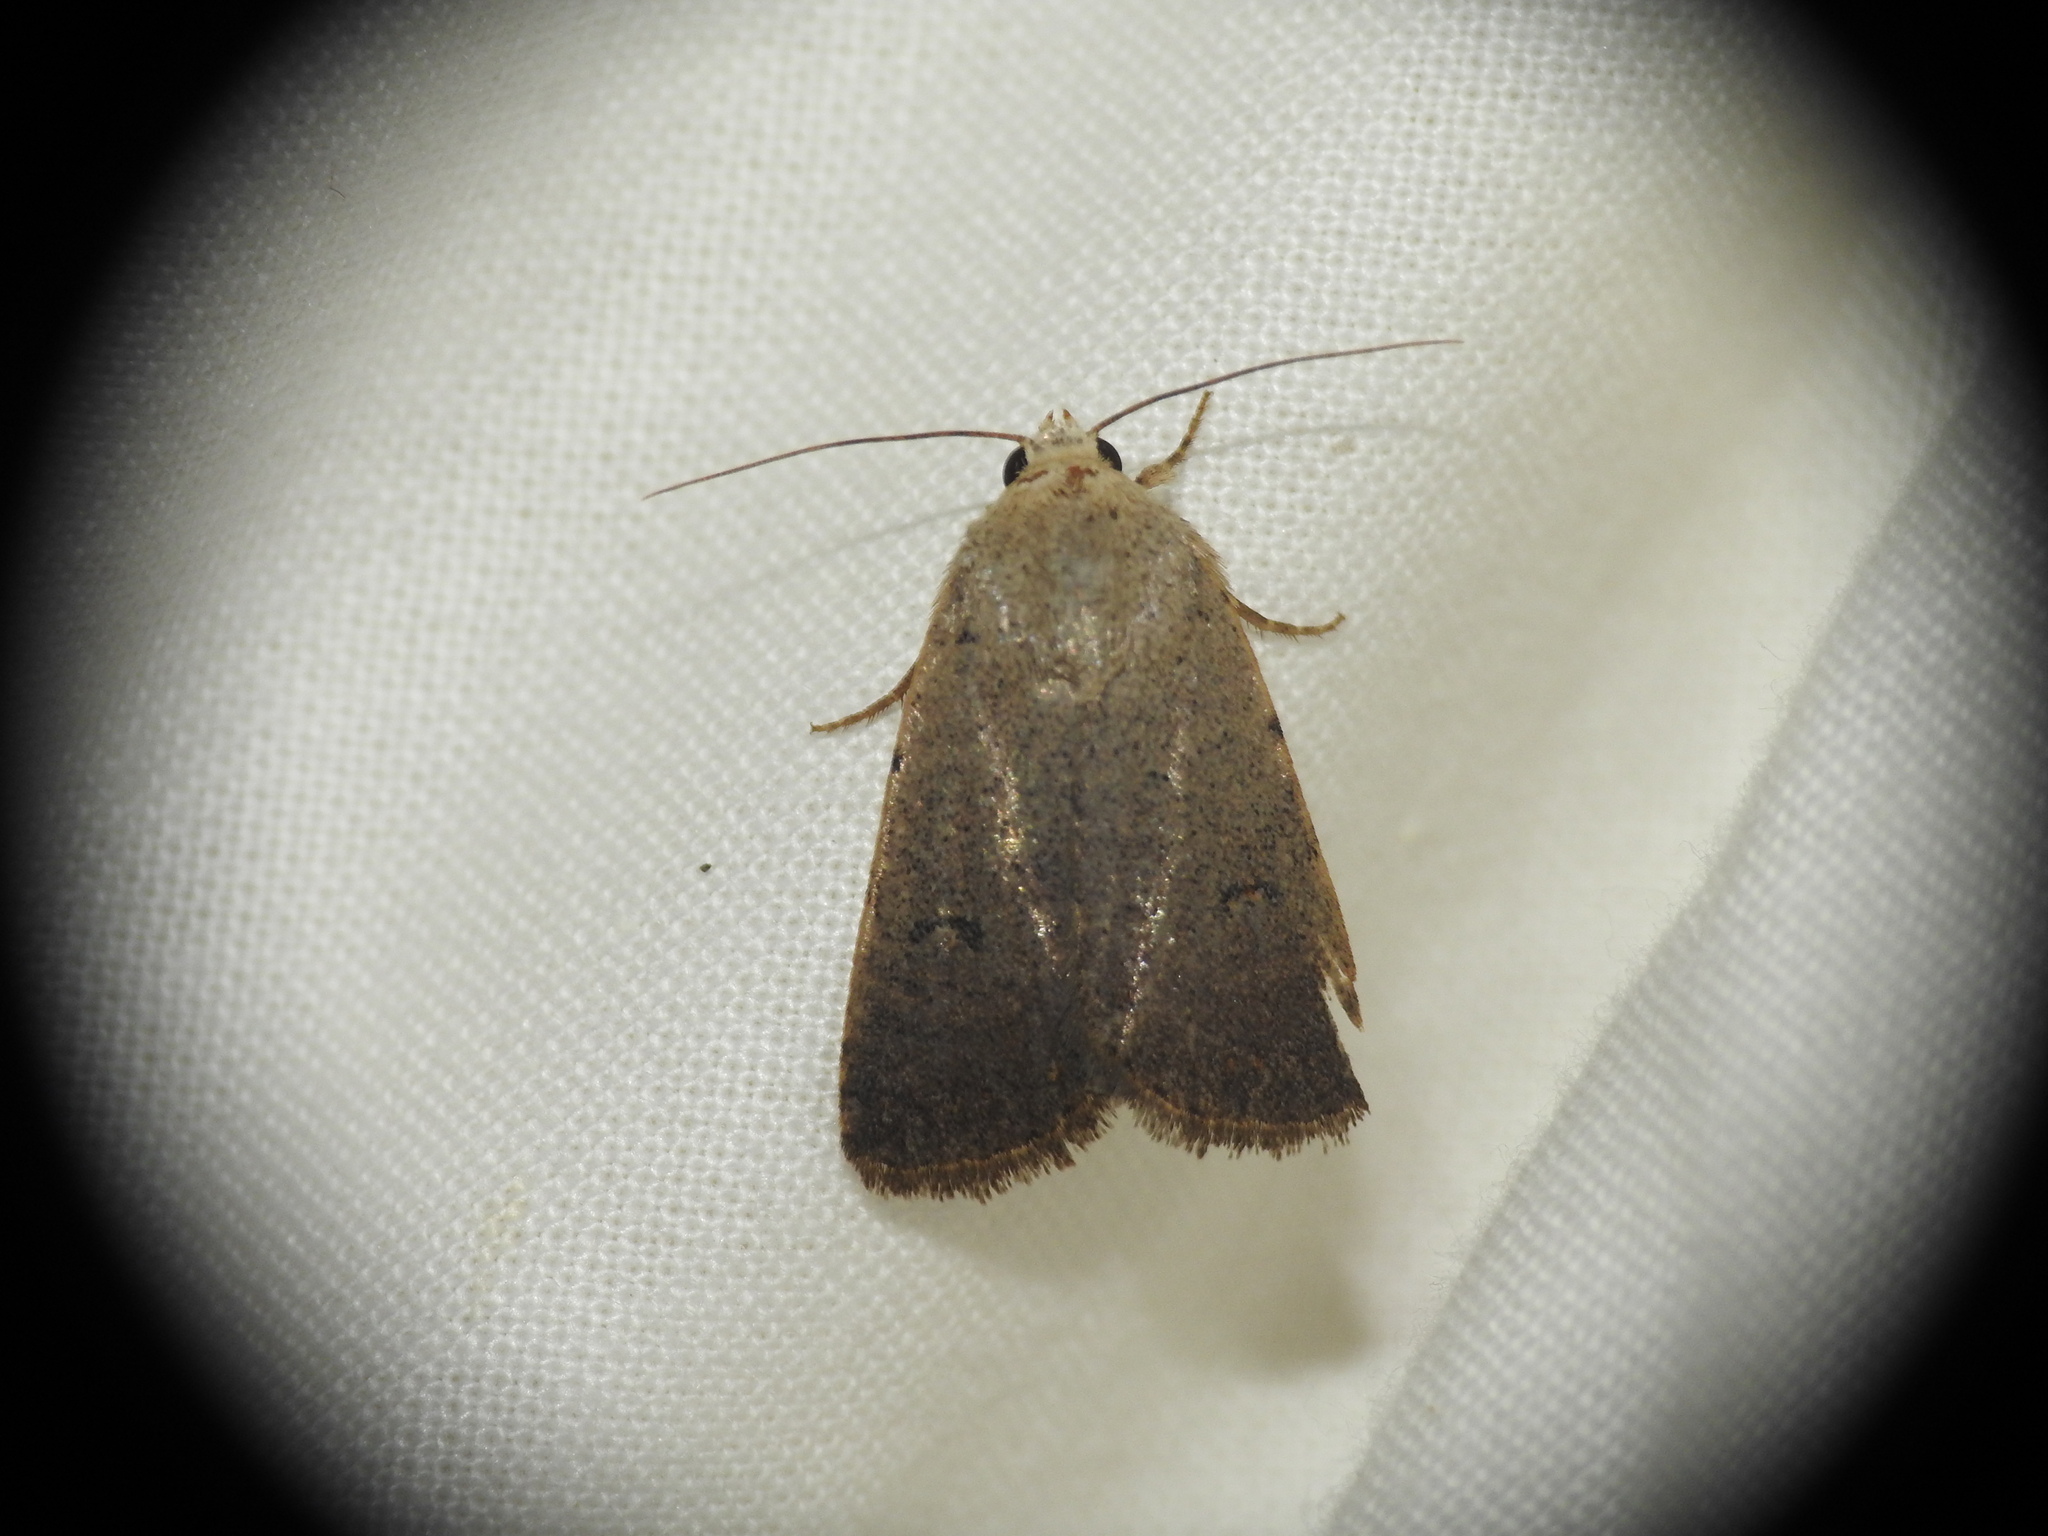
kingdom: Animalia
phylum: Arthropoda
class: Insecta
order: Lepidoptera
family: Noctuidae
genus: Caradrina
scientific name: Caradrina aspersa
